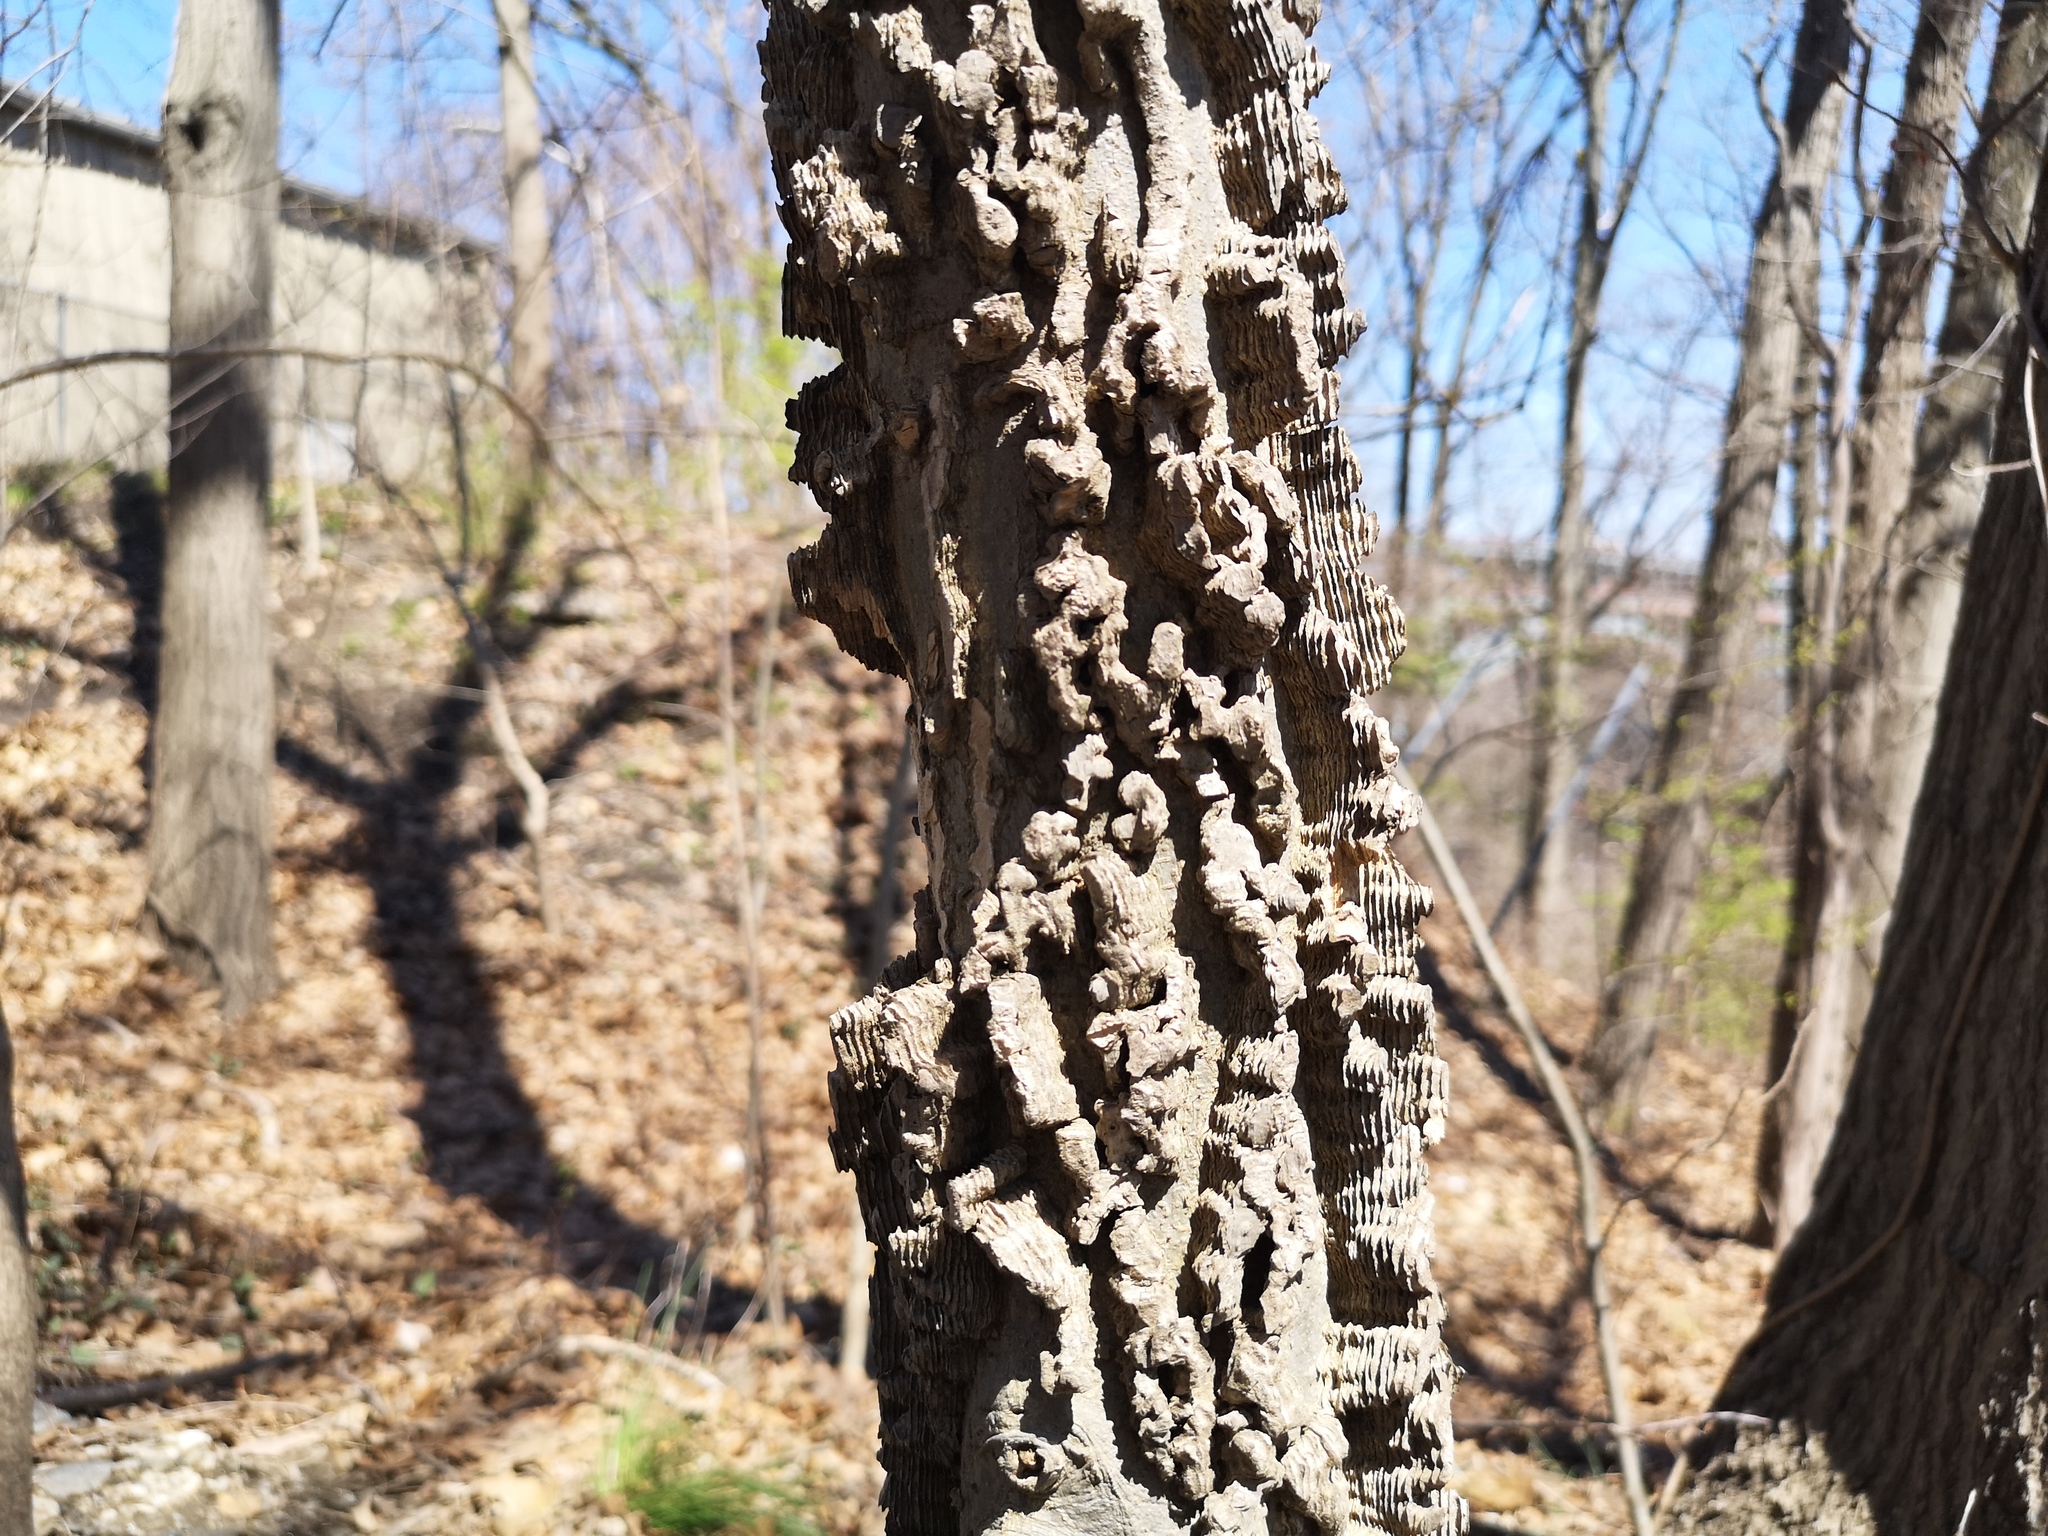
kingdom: Plantae
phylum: Tracheophyta
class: Magnoliopsida
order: Rosales
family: Cannabaceae
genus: Celtis
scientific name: Celtis occidentalis
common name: Common hackberry
